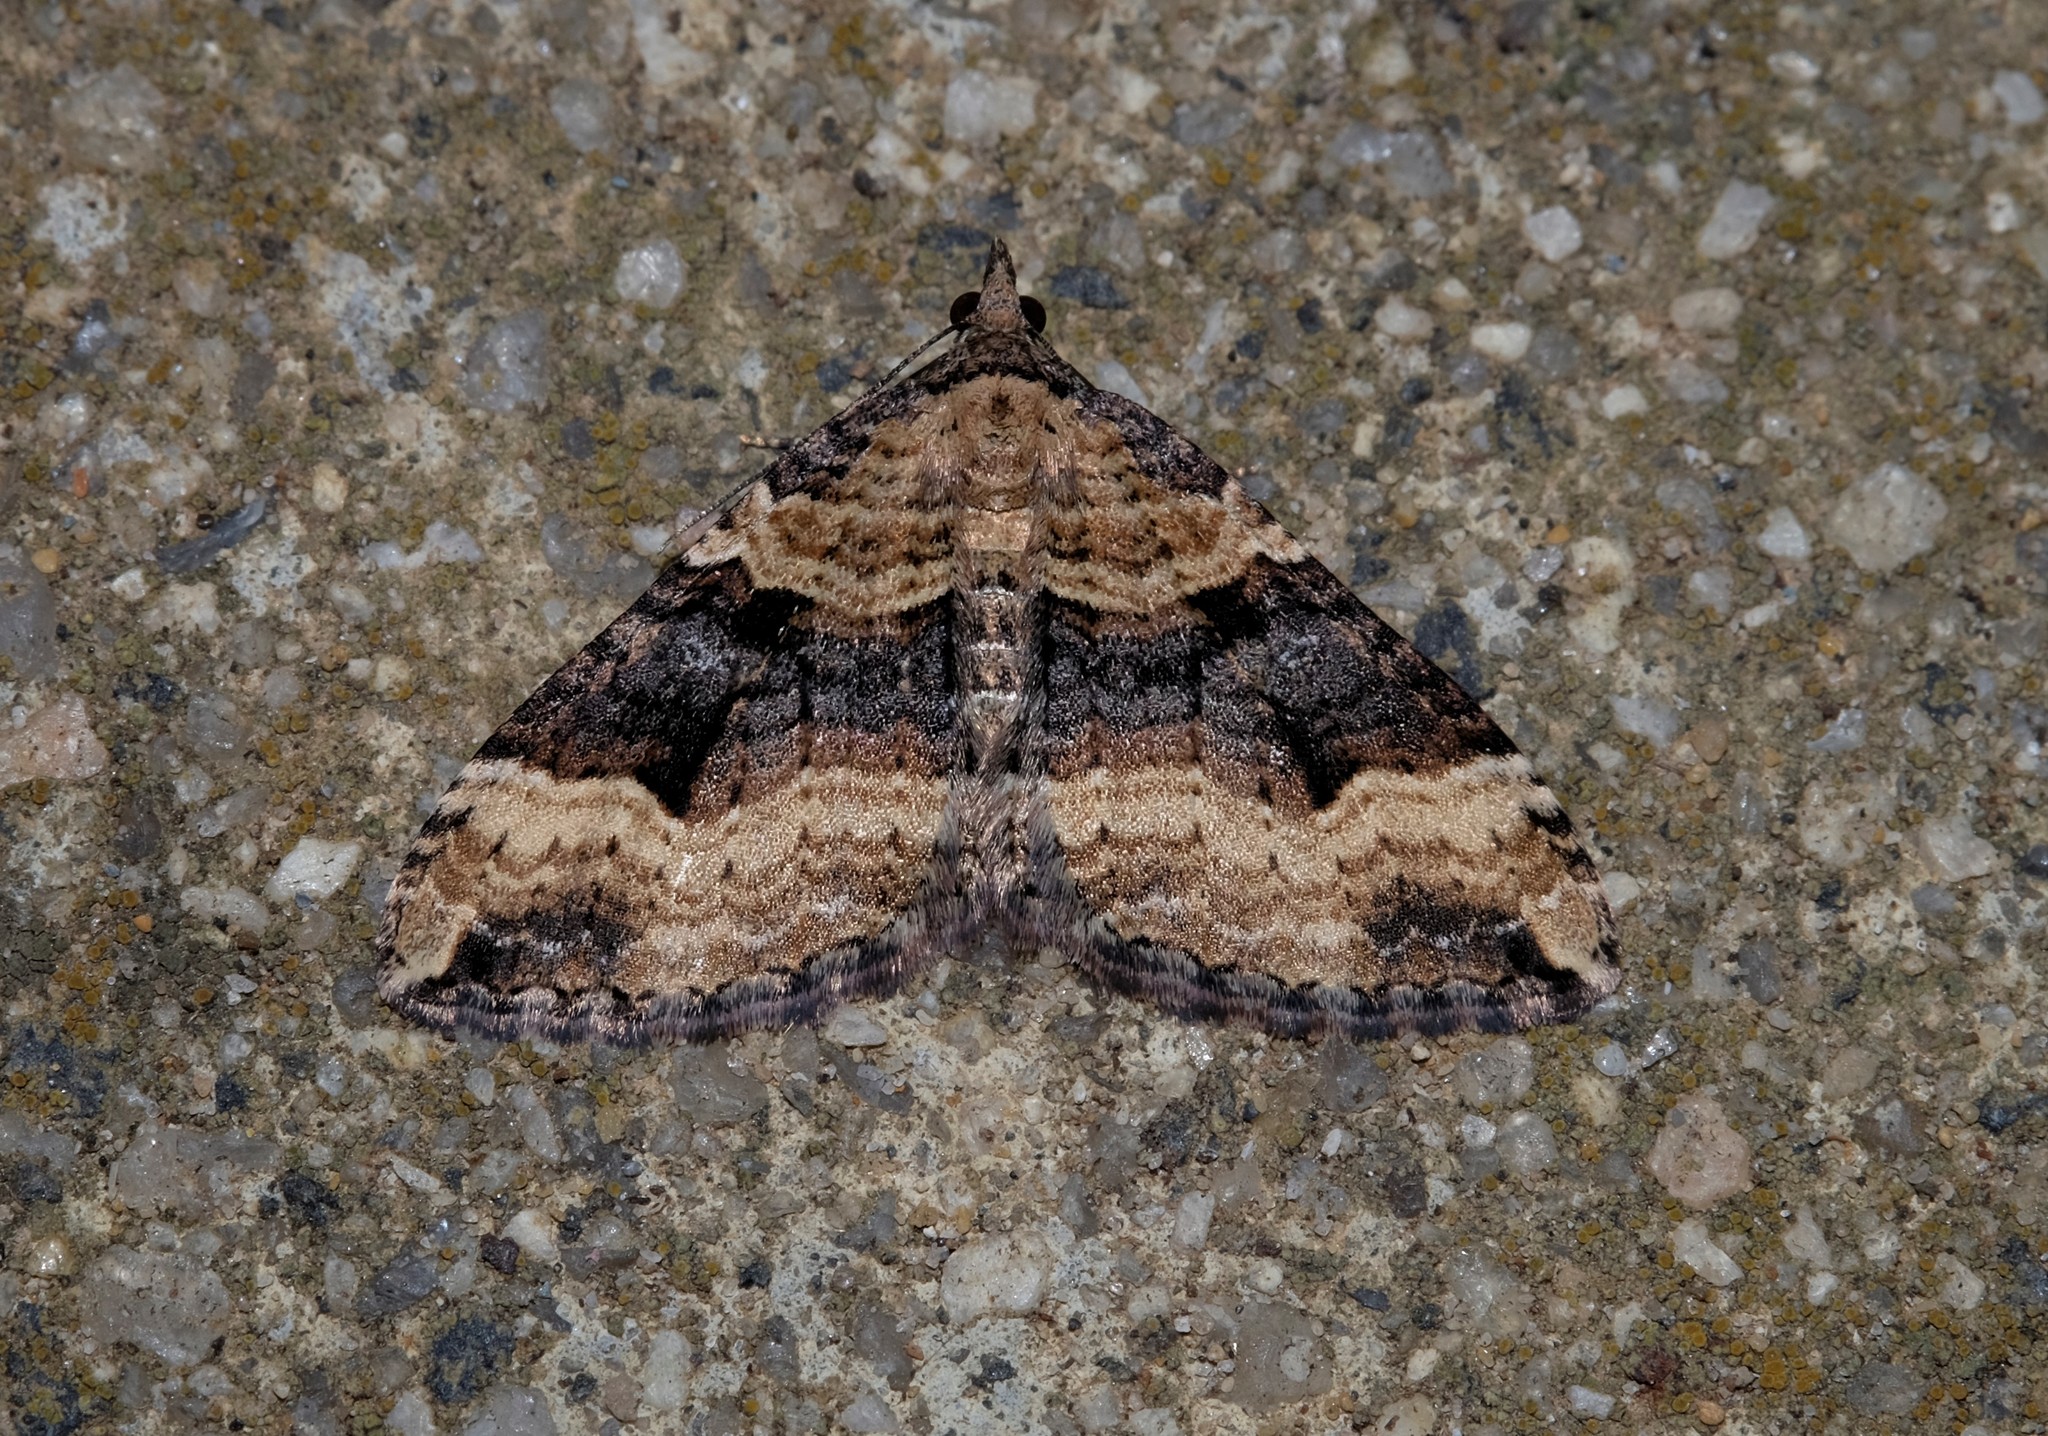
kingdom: Animalia
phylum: Arthropoda
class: Insecta
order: Lepidoptera
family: Geometridae
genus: Epyaxa
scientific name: Epyaxa subidaria
